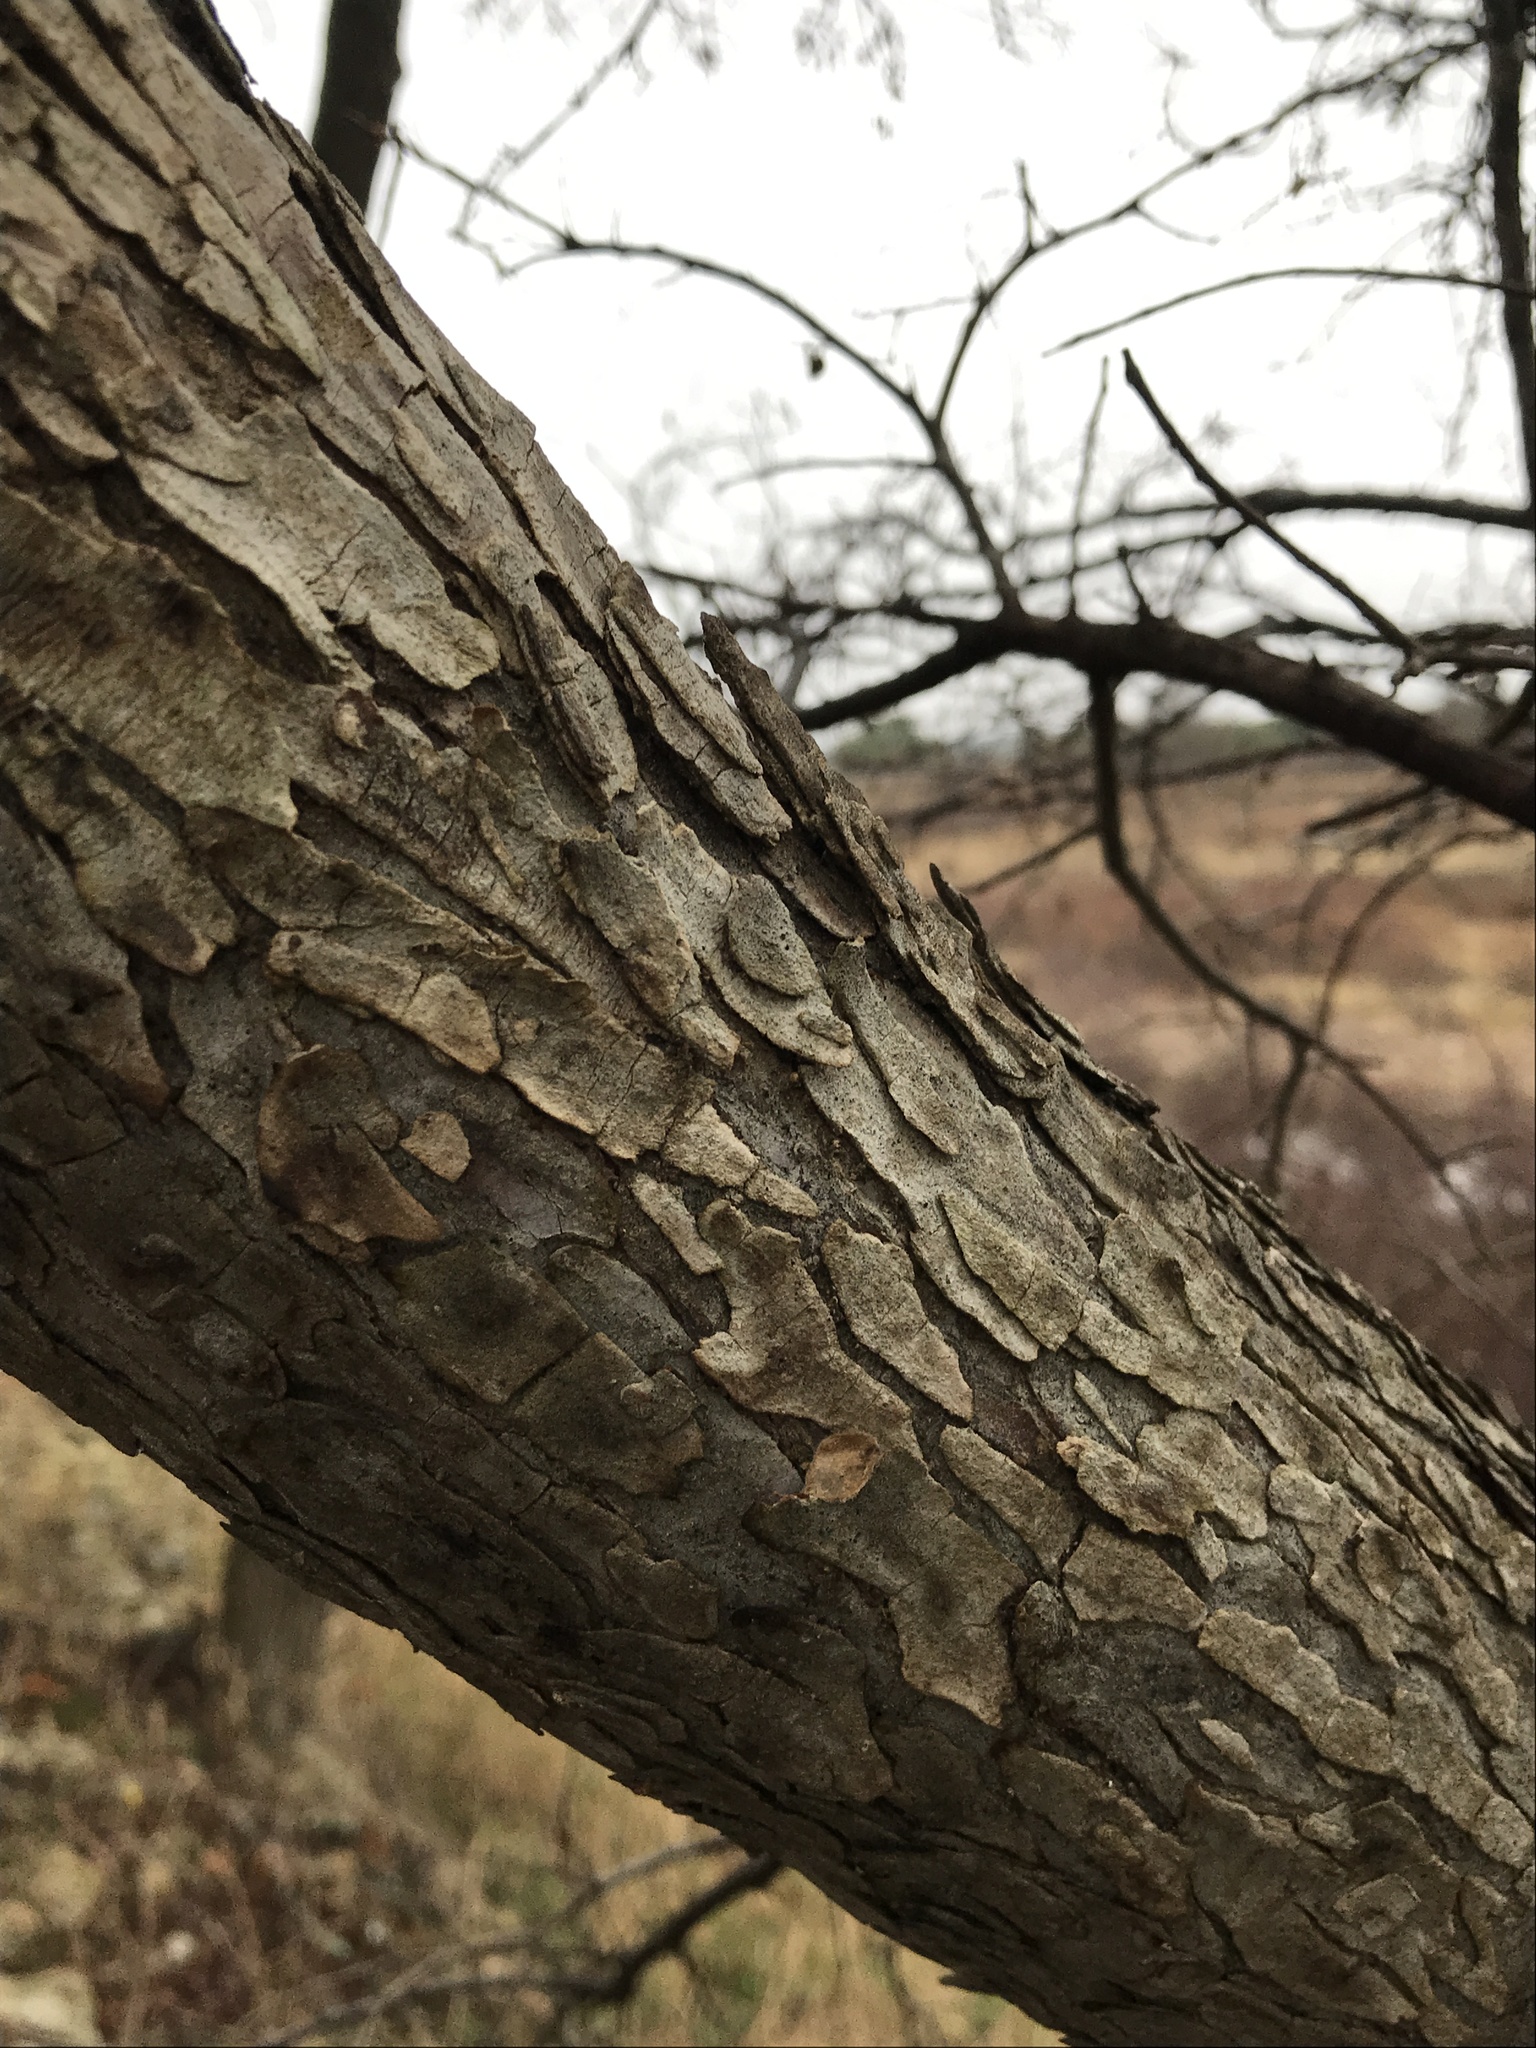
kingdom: Plantae
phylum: Tracheophyta
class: Magnoliopsida
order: Rosales
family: Ulmaceae
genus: Ulmus
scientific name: Ulmus crassifolia
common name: Basket elm
